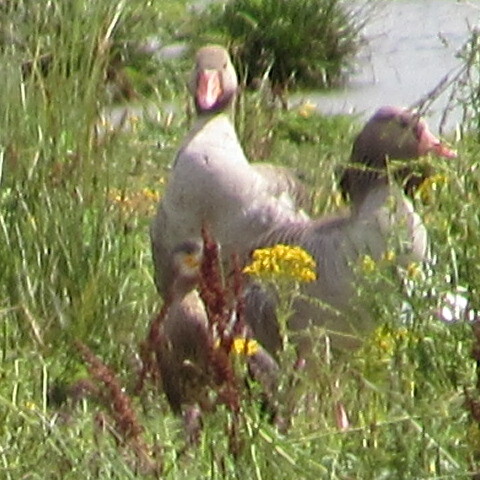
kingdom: Animalia
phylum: Chordata
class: Aves
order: Anseriformes
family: Anatidae
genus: Anser
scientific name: Anser anser
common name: Greylag goose
